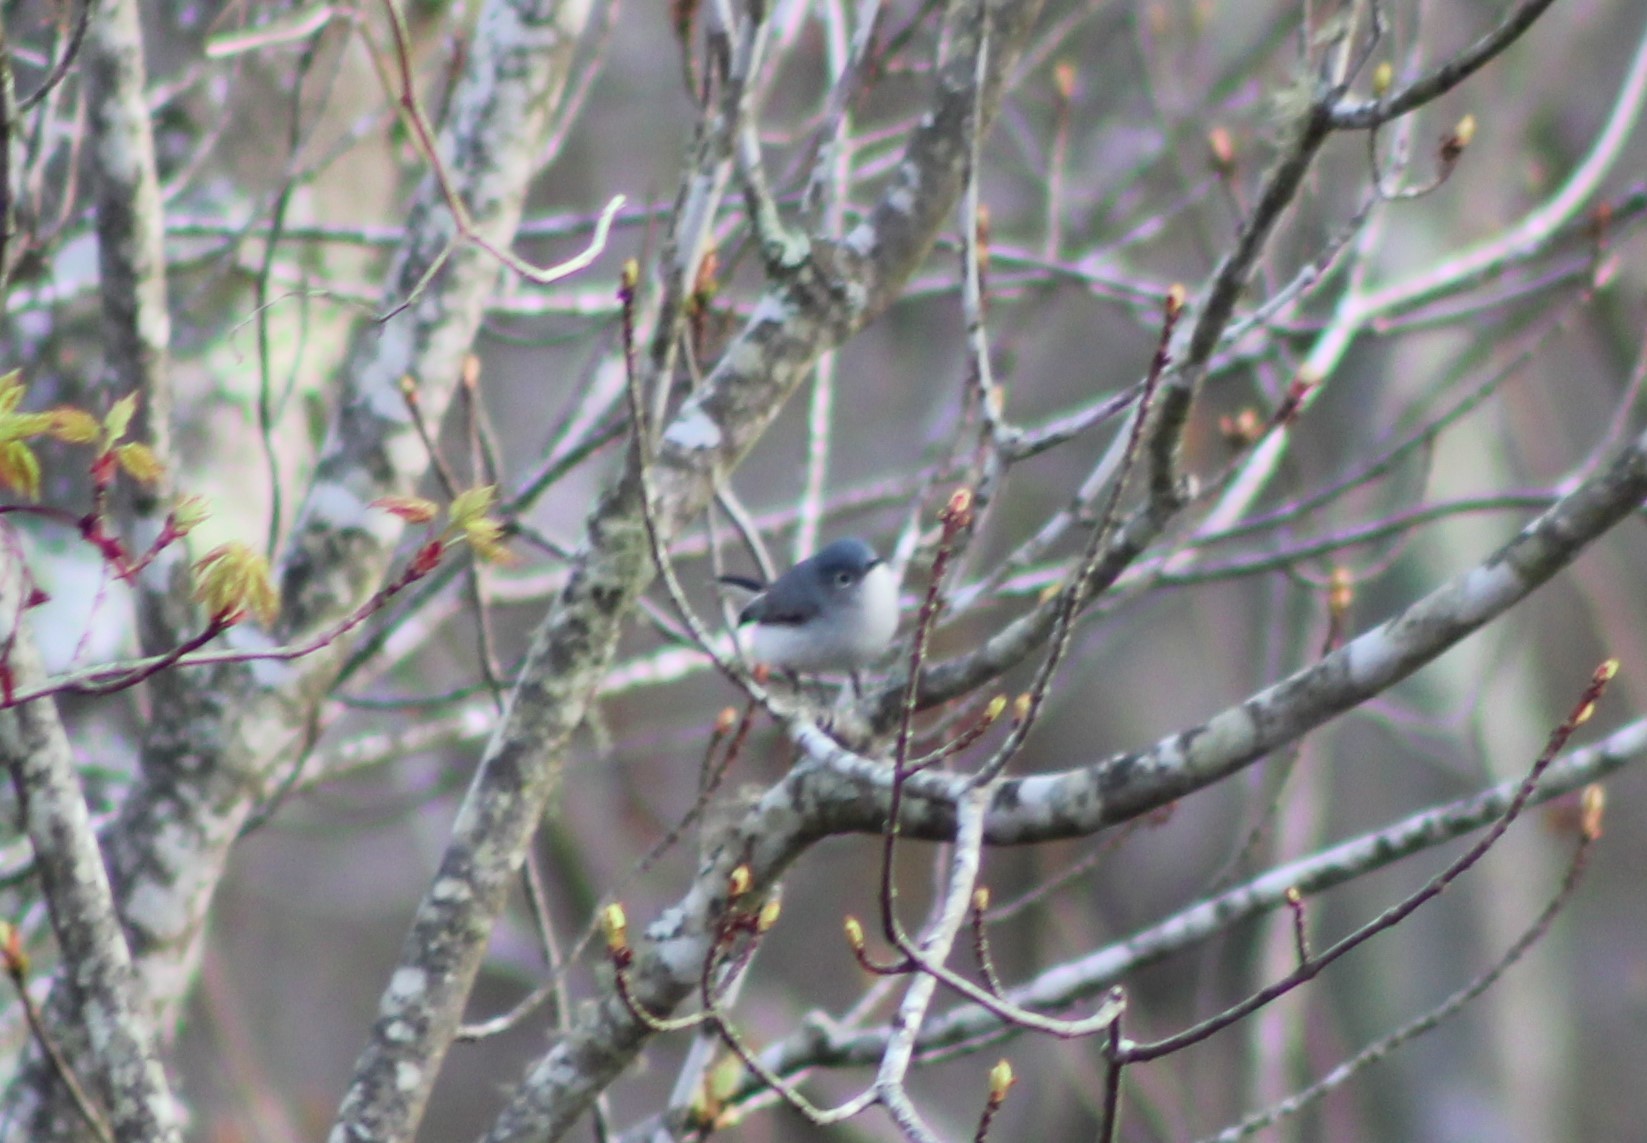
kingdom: Animalia
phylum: Chordata
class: Aves
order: Passeriformes
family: Polioptilidae
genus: Polioptila
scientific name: Polioptila caerulea
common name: Blue-gray gnatcatcher
